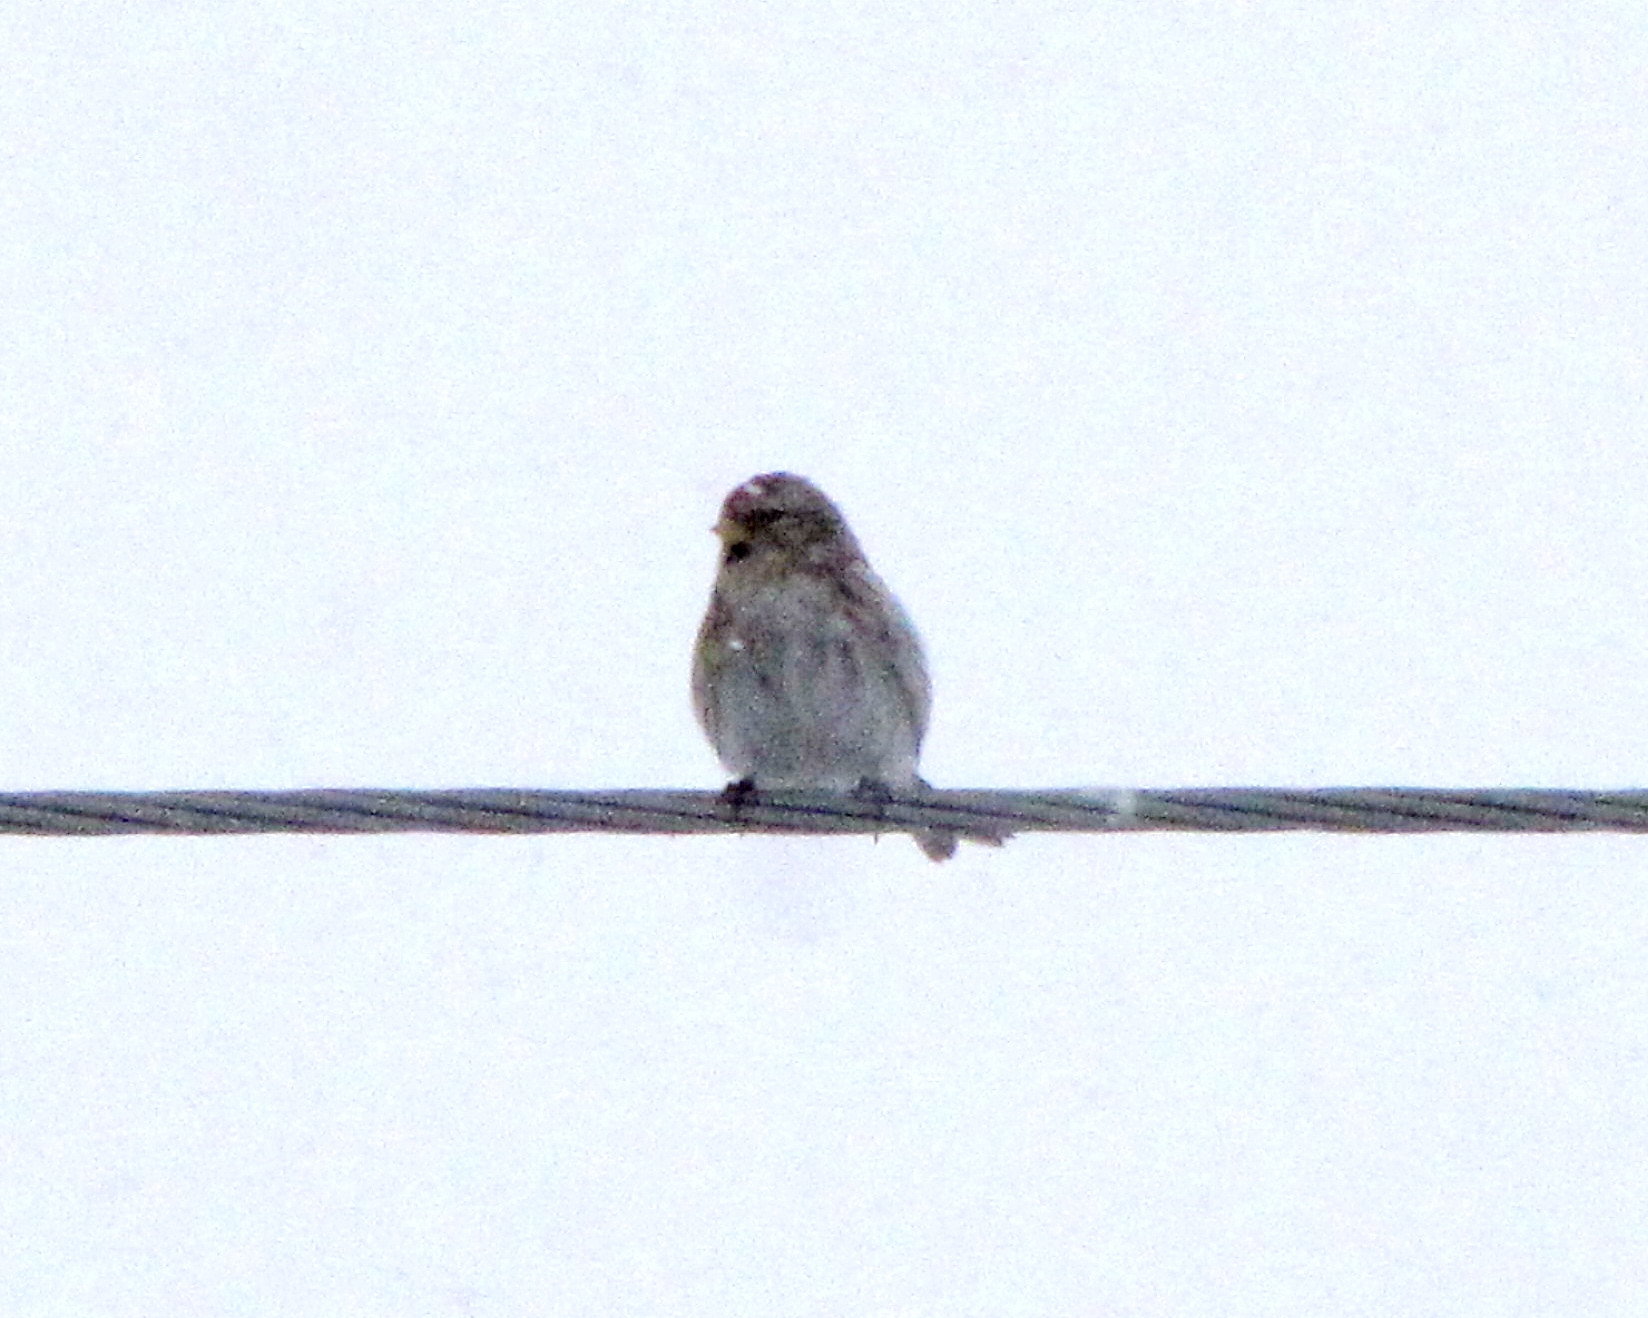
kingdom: Animalia
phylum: Chordata
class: Aves
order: Passeriformes
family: Fringillidae
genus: Acanthis
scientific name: Acanthis flammea
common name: Common redpoll
